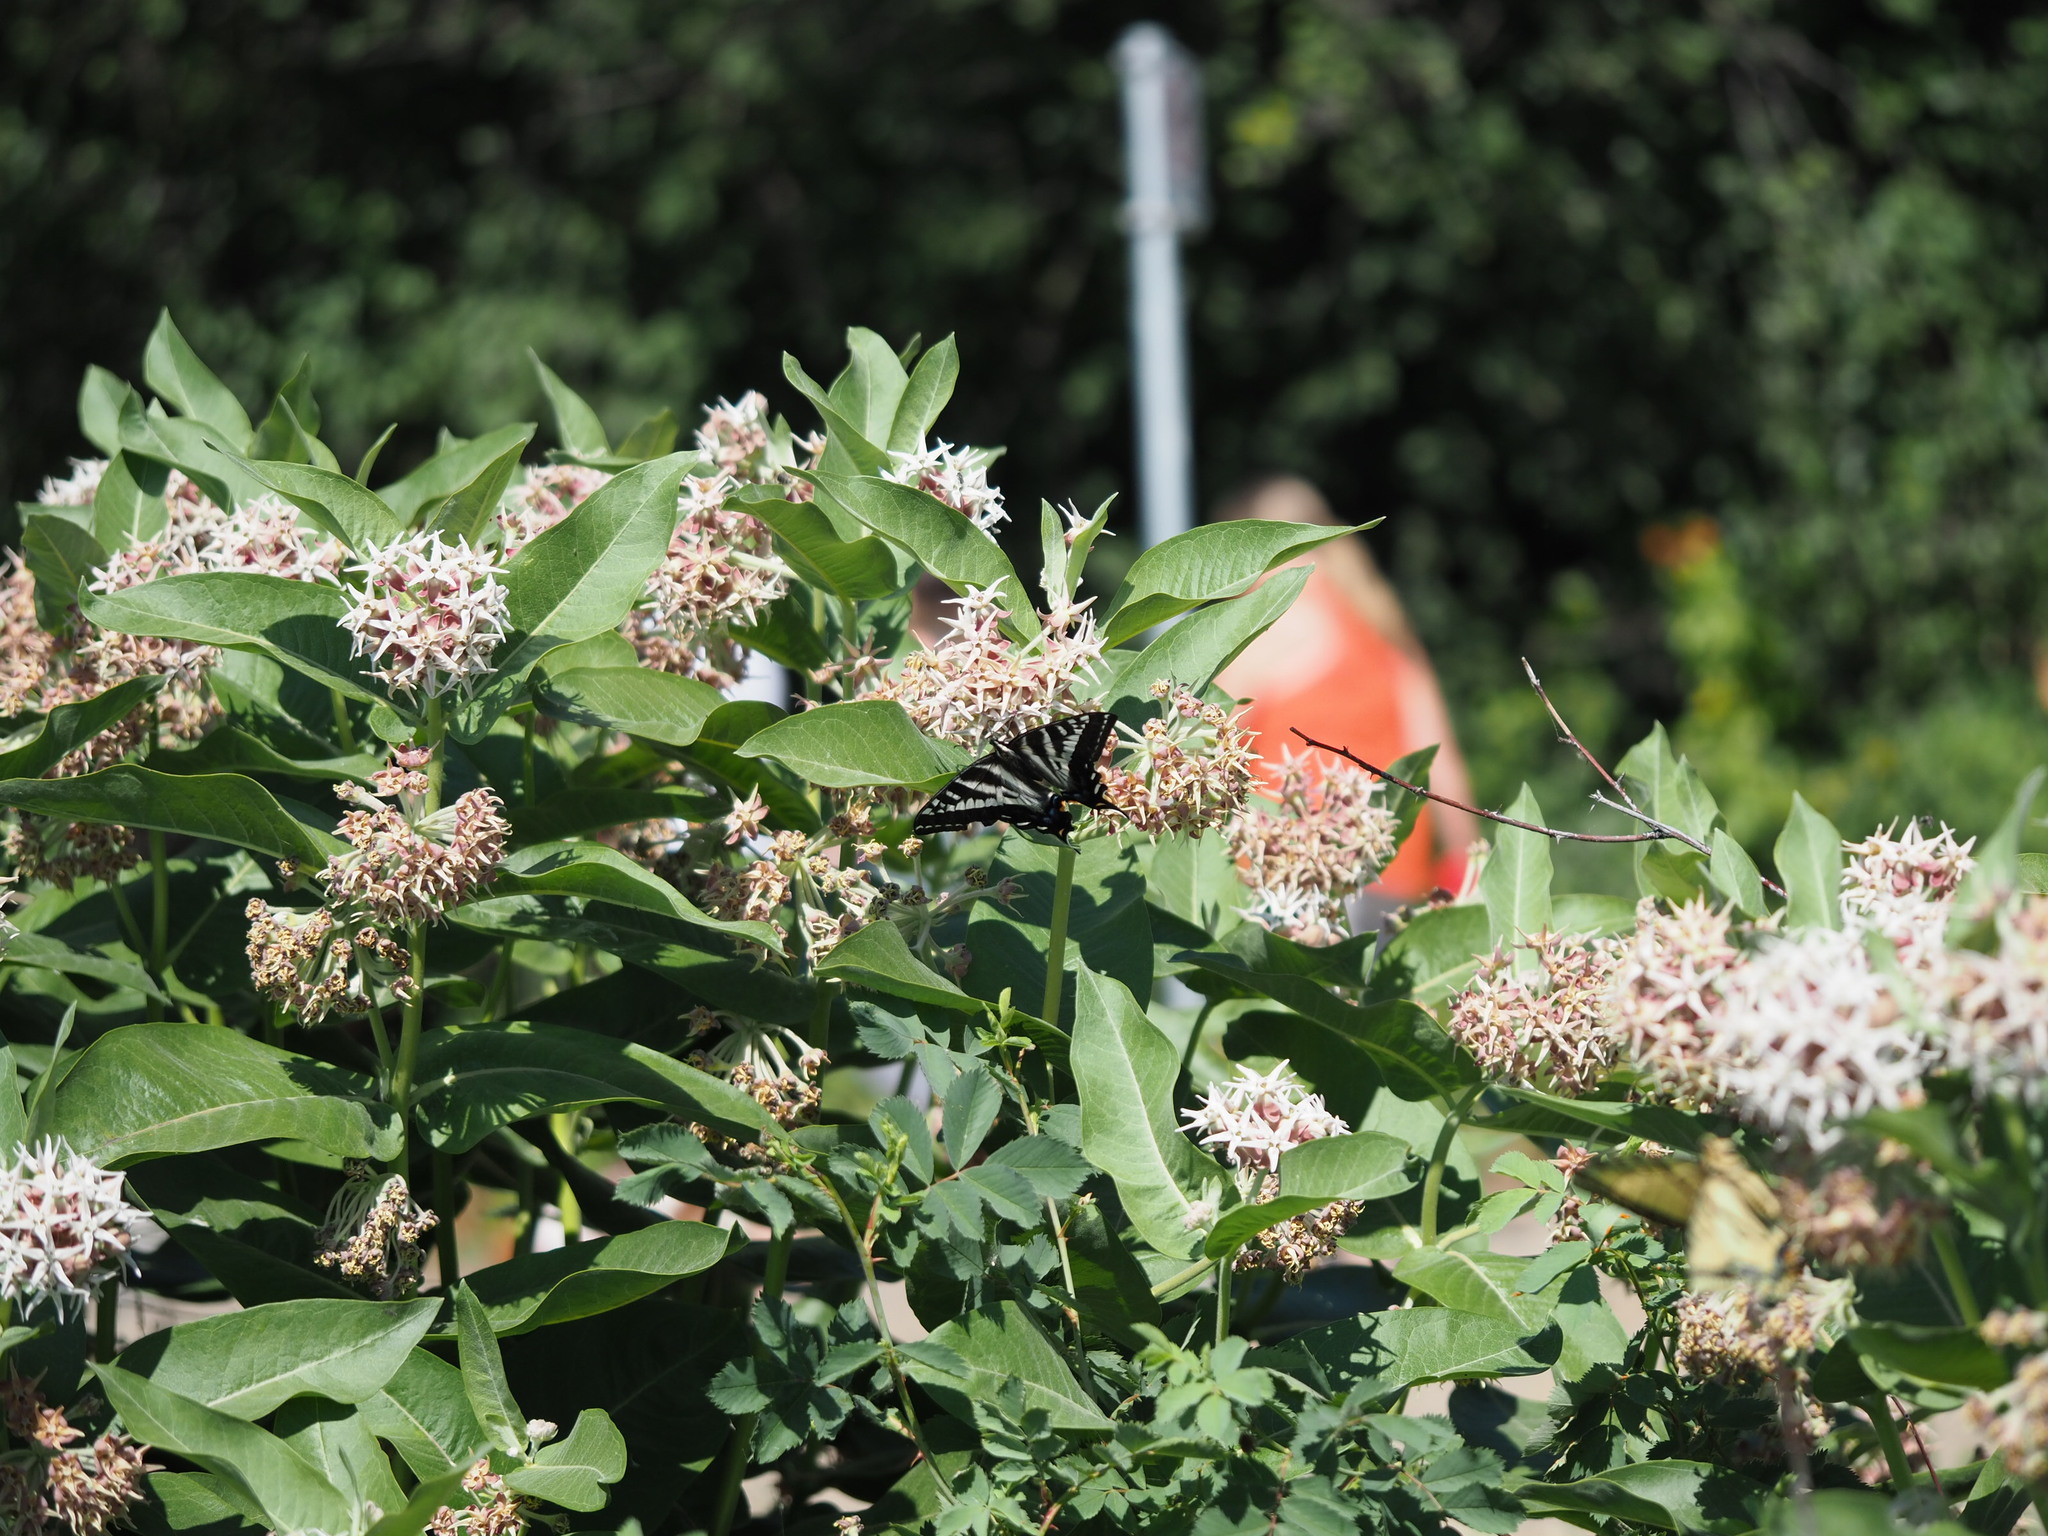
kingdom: Animalia
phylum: Arthropoda
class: Insecta
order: Lepidoptera
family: Papilionidae
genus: Papilio
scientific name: Papilio eurymedon
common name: Pale tiger swallowtail
